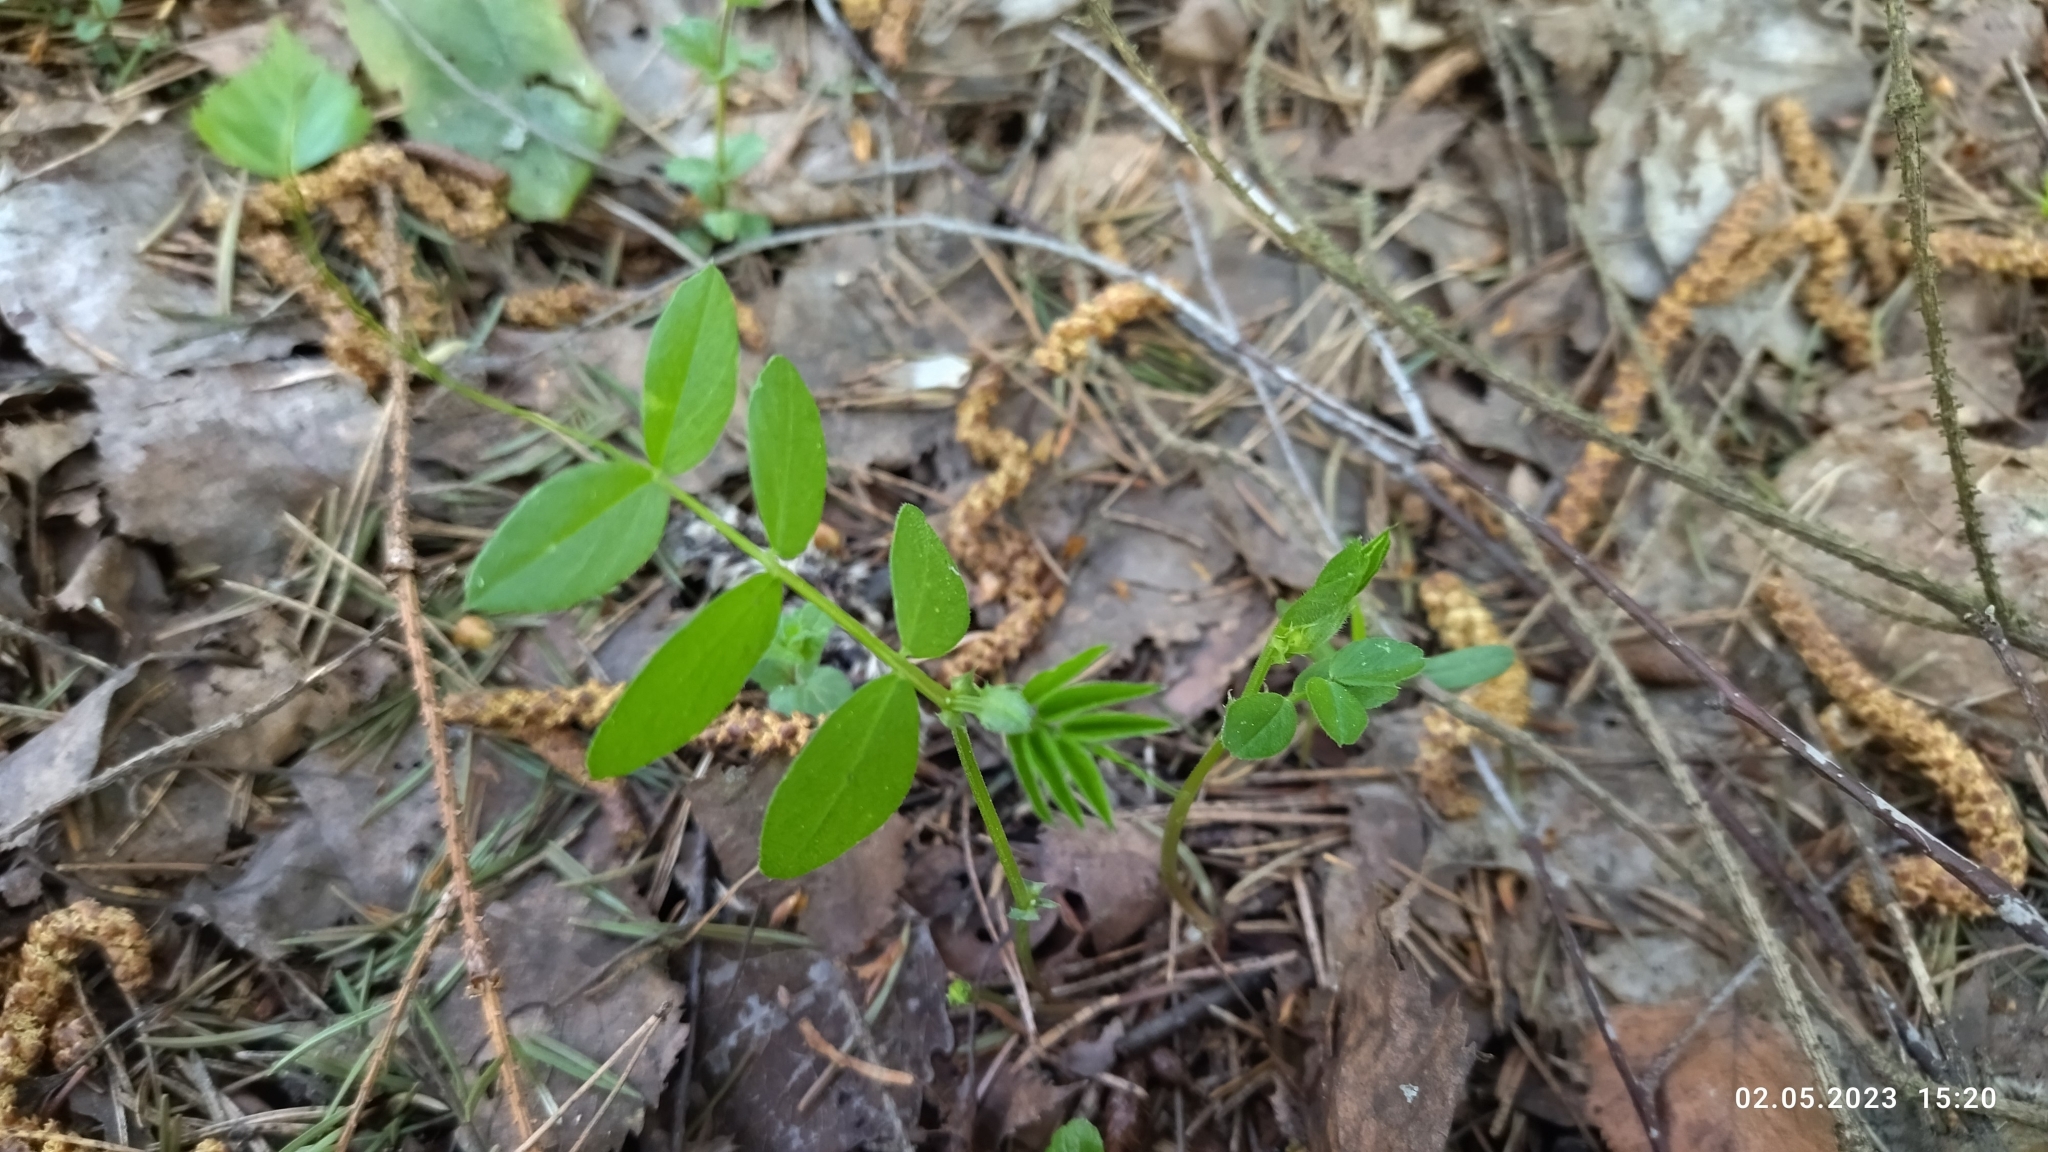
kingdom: Plantae
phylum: Tracheophyta
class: Magnoliopsida
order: Fabales
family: Fabaceae
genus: Vicia
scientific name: Vicia sepium
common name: Bush vetch
